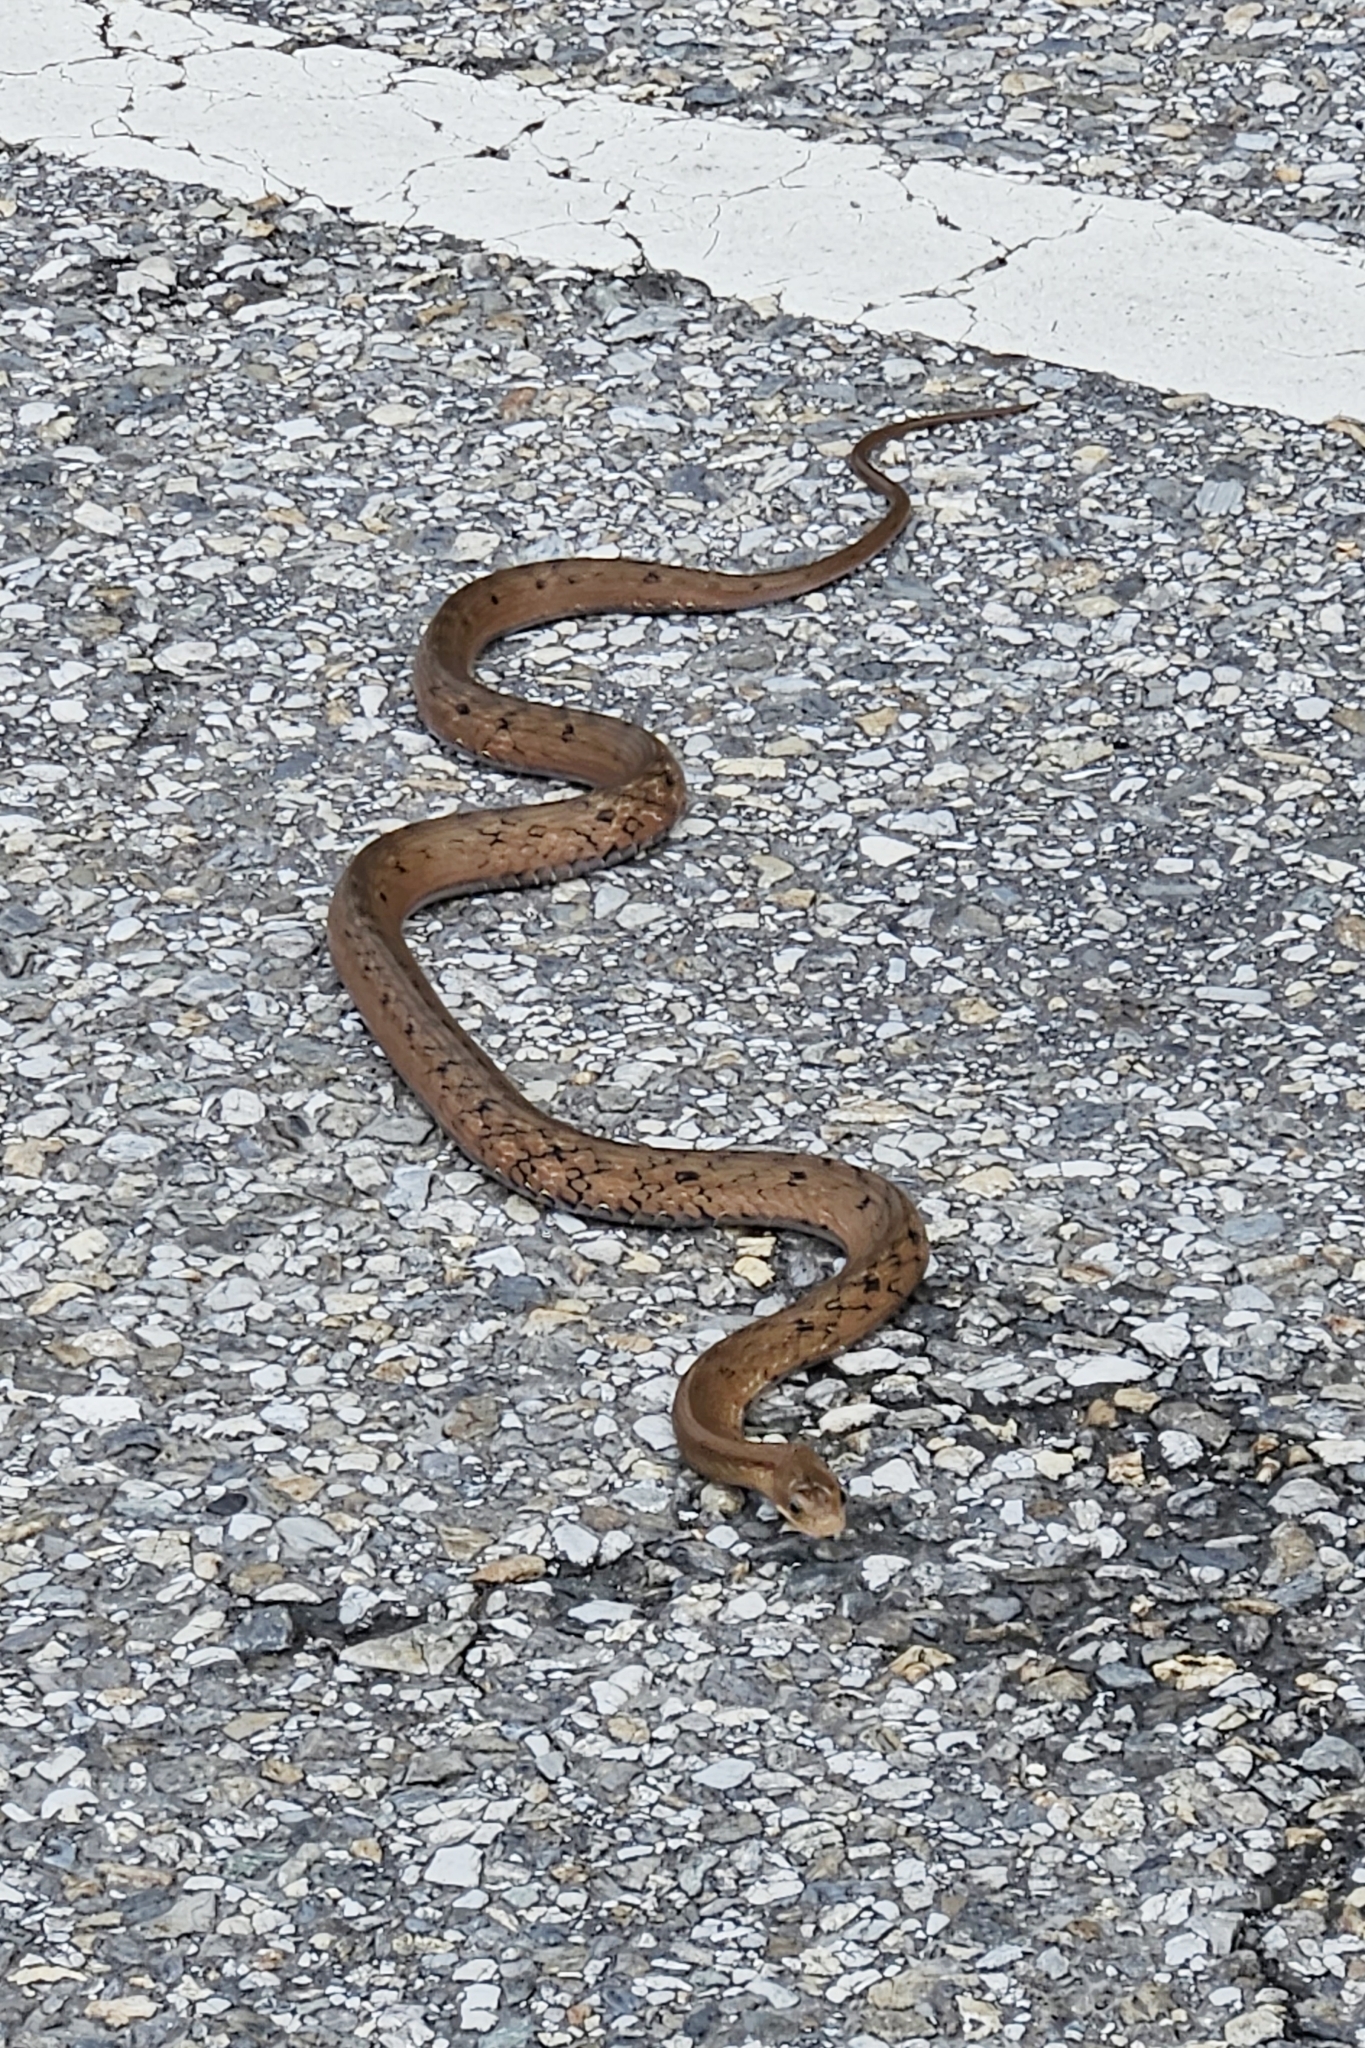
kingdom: Animalia
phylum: Chordata
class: Squamata
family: Colubridae
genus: Pseudoxenodon
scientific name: Pseudoxenodon macrops
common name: Big-eyed mountain keelback
